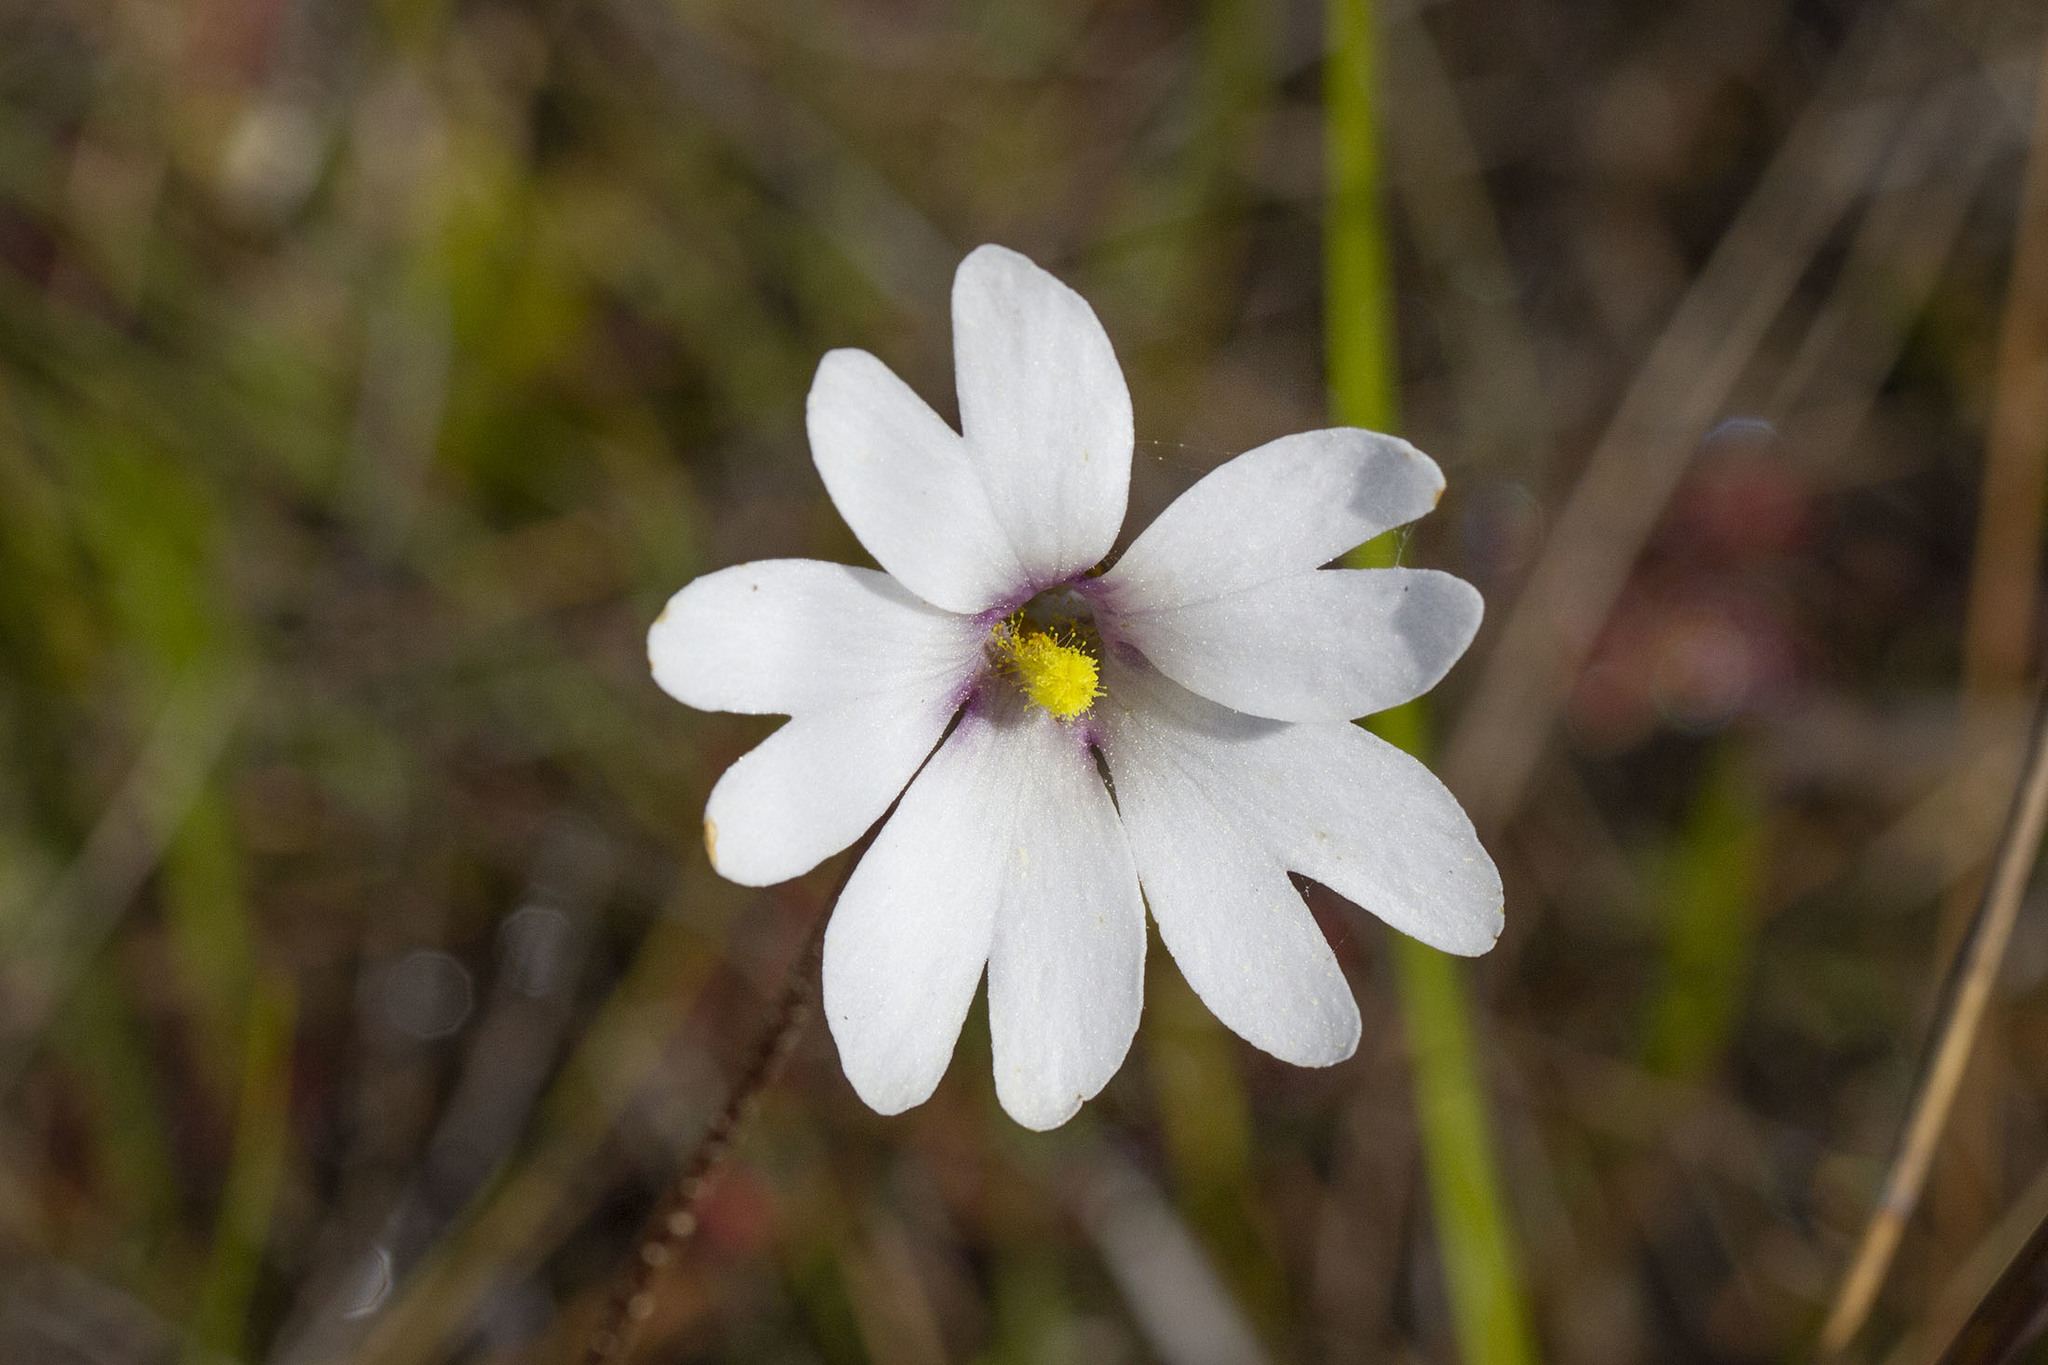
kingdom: Plantae
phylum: Tracheophyta
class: Magnoliopsida
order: Lamiales
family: Lentibulariaceae
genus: Pinguicula
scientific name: Pinguicula ionantha
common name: Godfrey's butterwort
